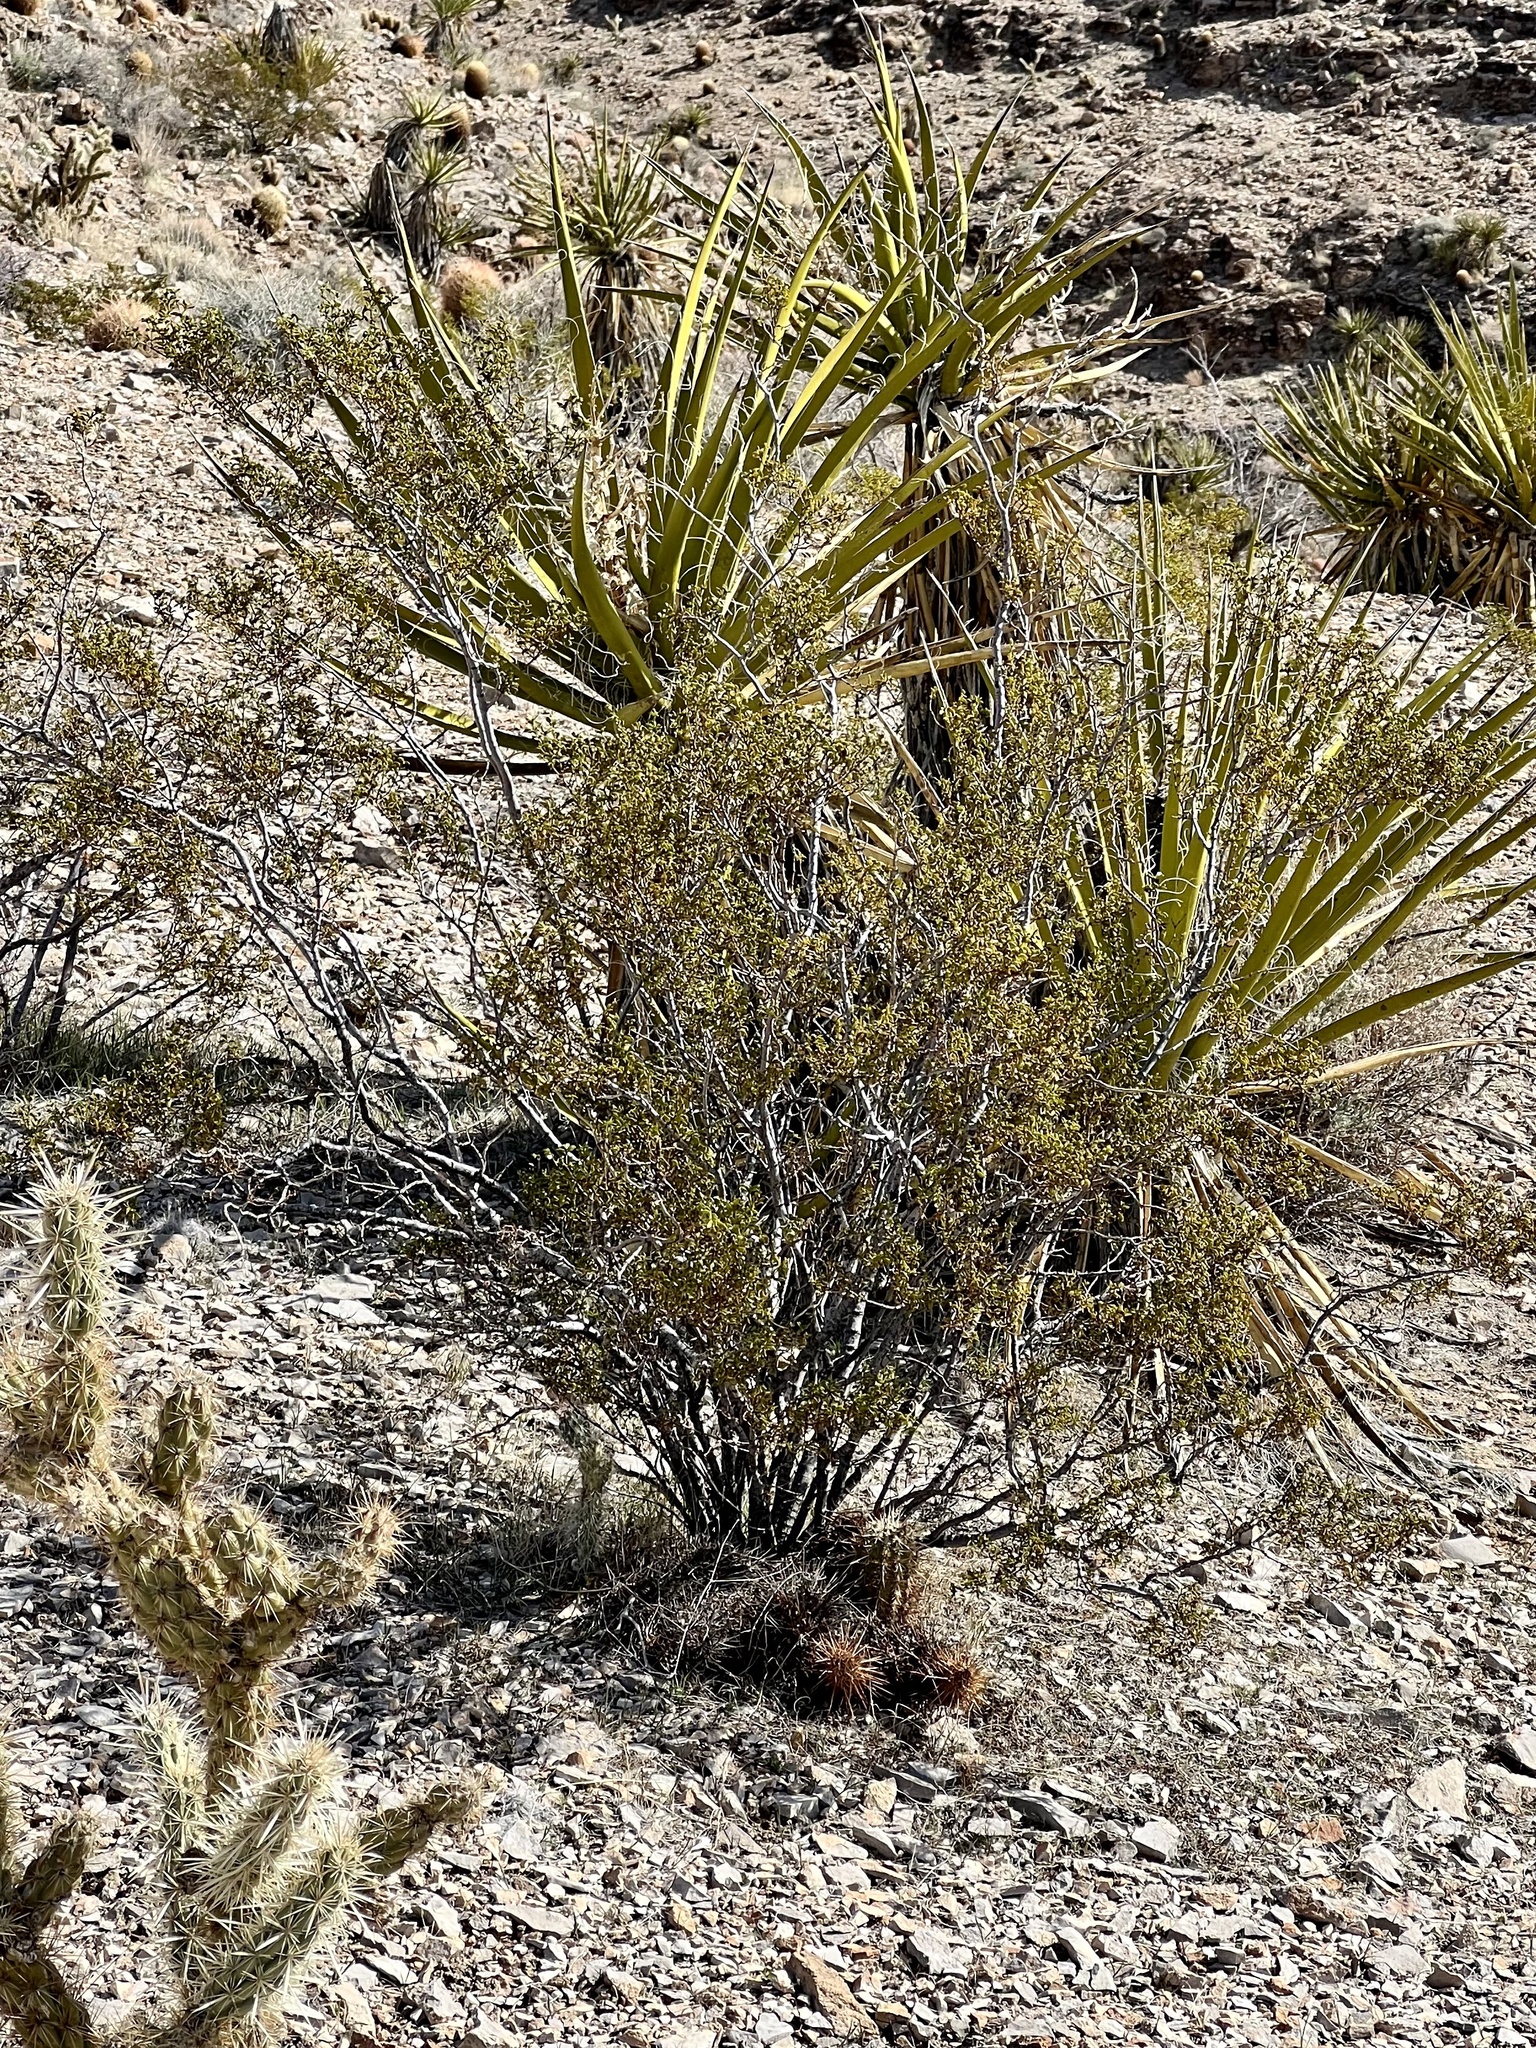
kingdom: Plantae
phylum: Tracheophyta
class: Magnoliopsida
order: Zygophyllales
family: Zygophyllaceae
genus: Larrea
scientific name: Larrea tridentata
